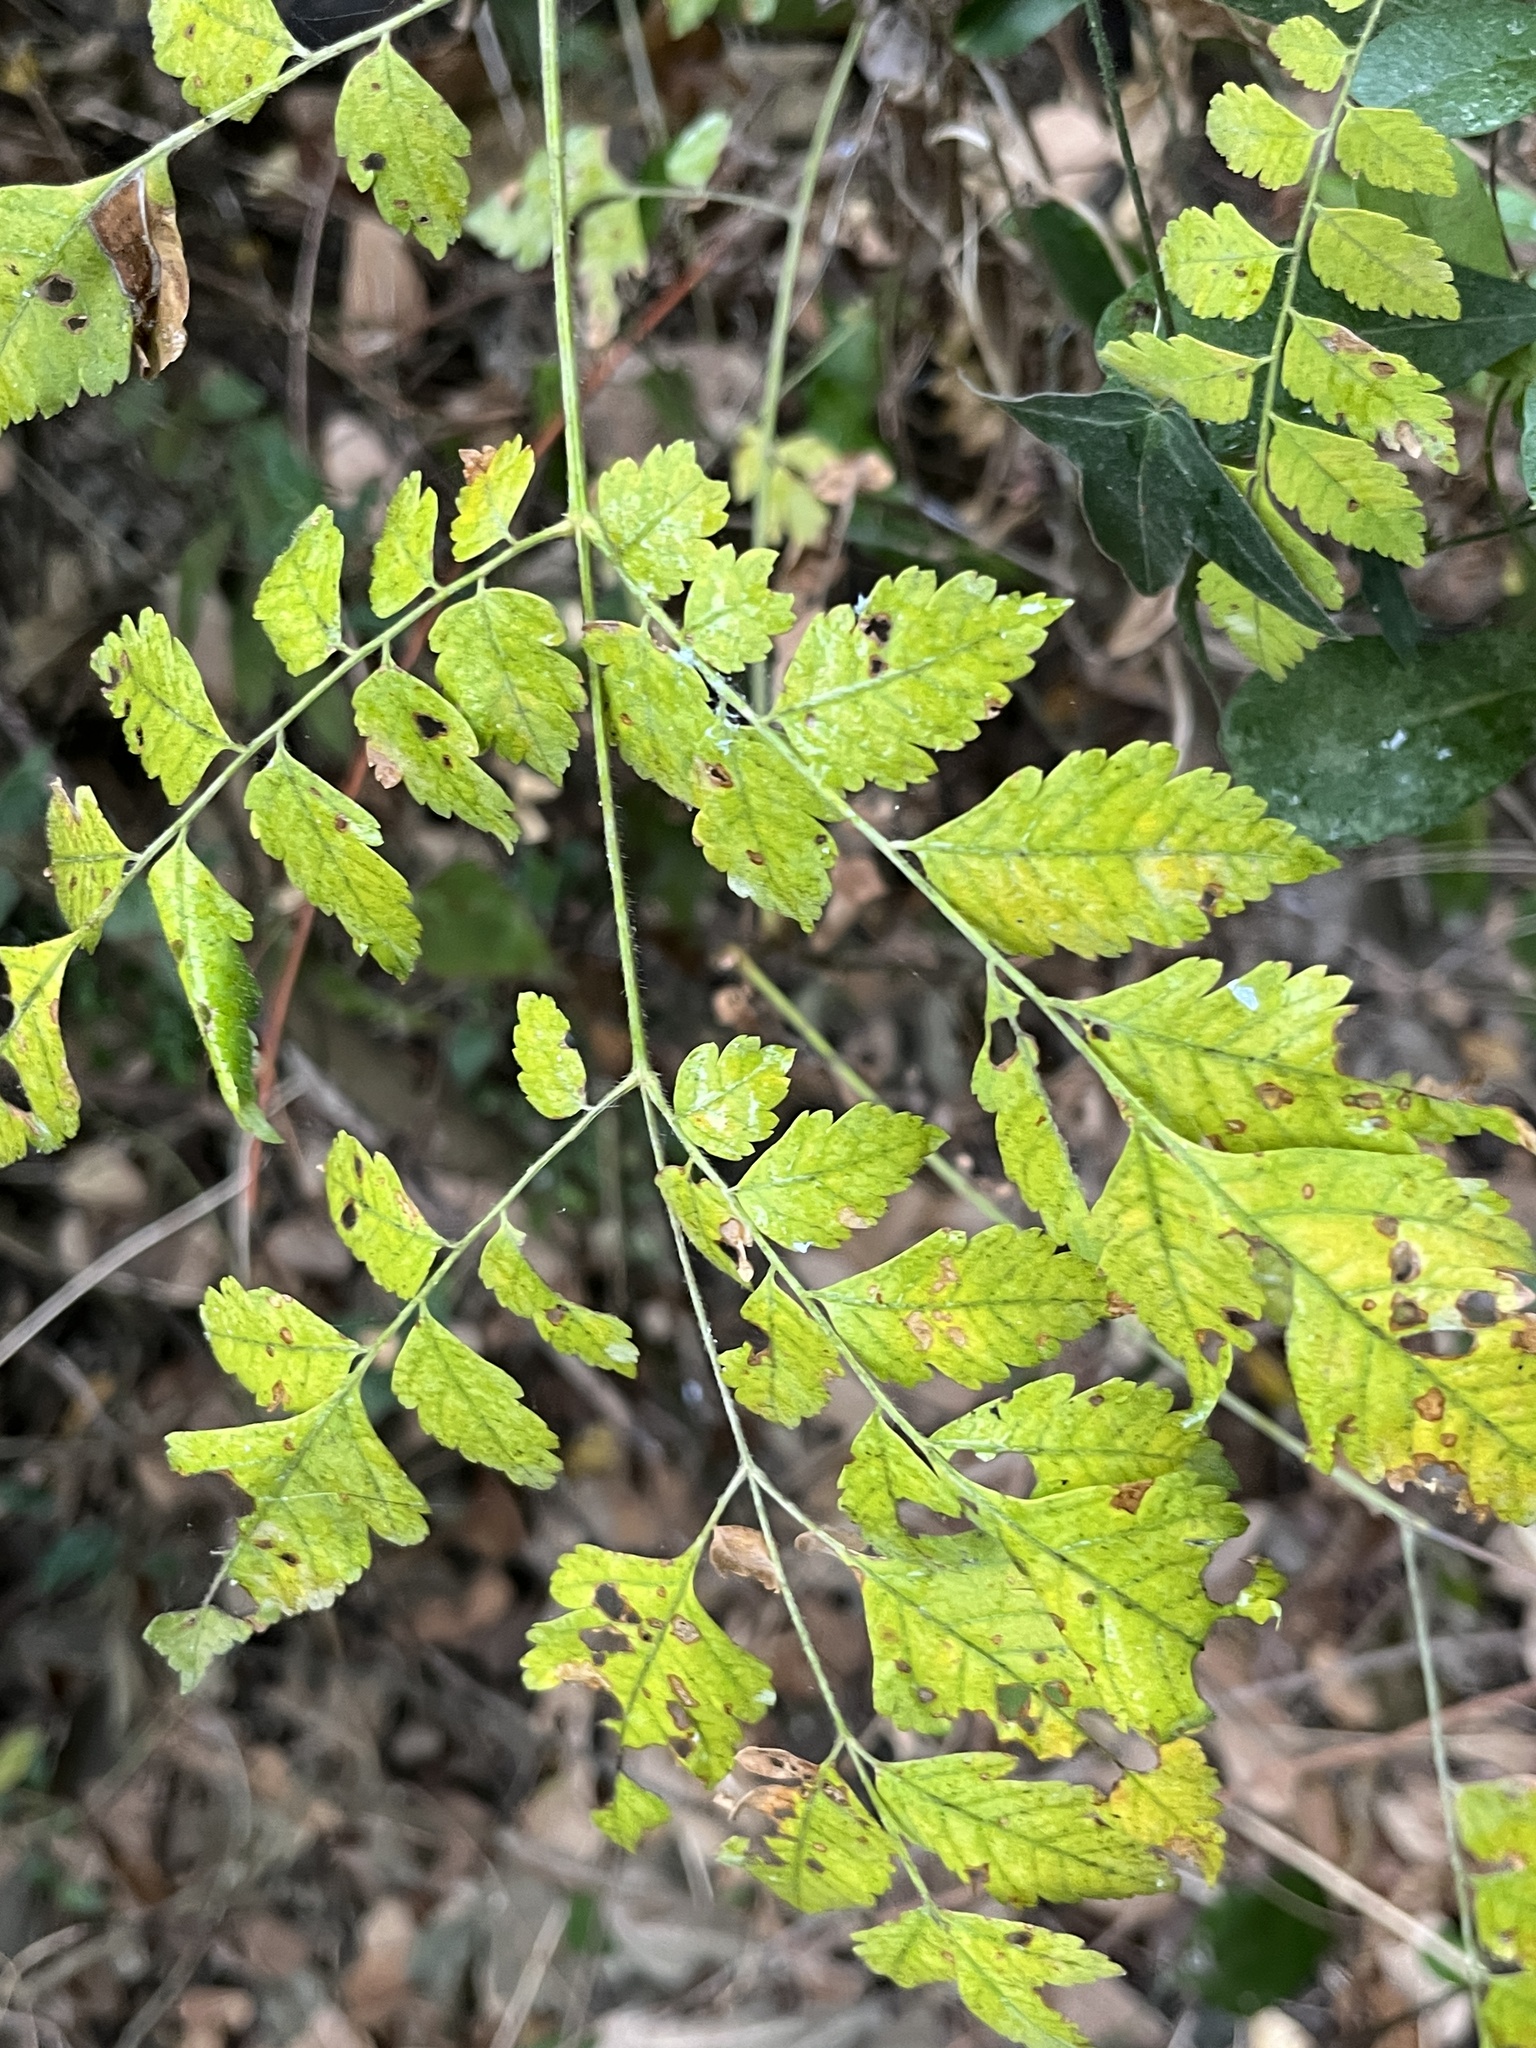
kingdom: Plantae
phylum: Tracheophyta
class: Magnoliopsida
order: Sapindales
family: Sapindaceae
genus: Koelreuteria
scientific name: Koelreuteria elegans
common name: Chinese flame tree
